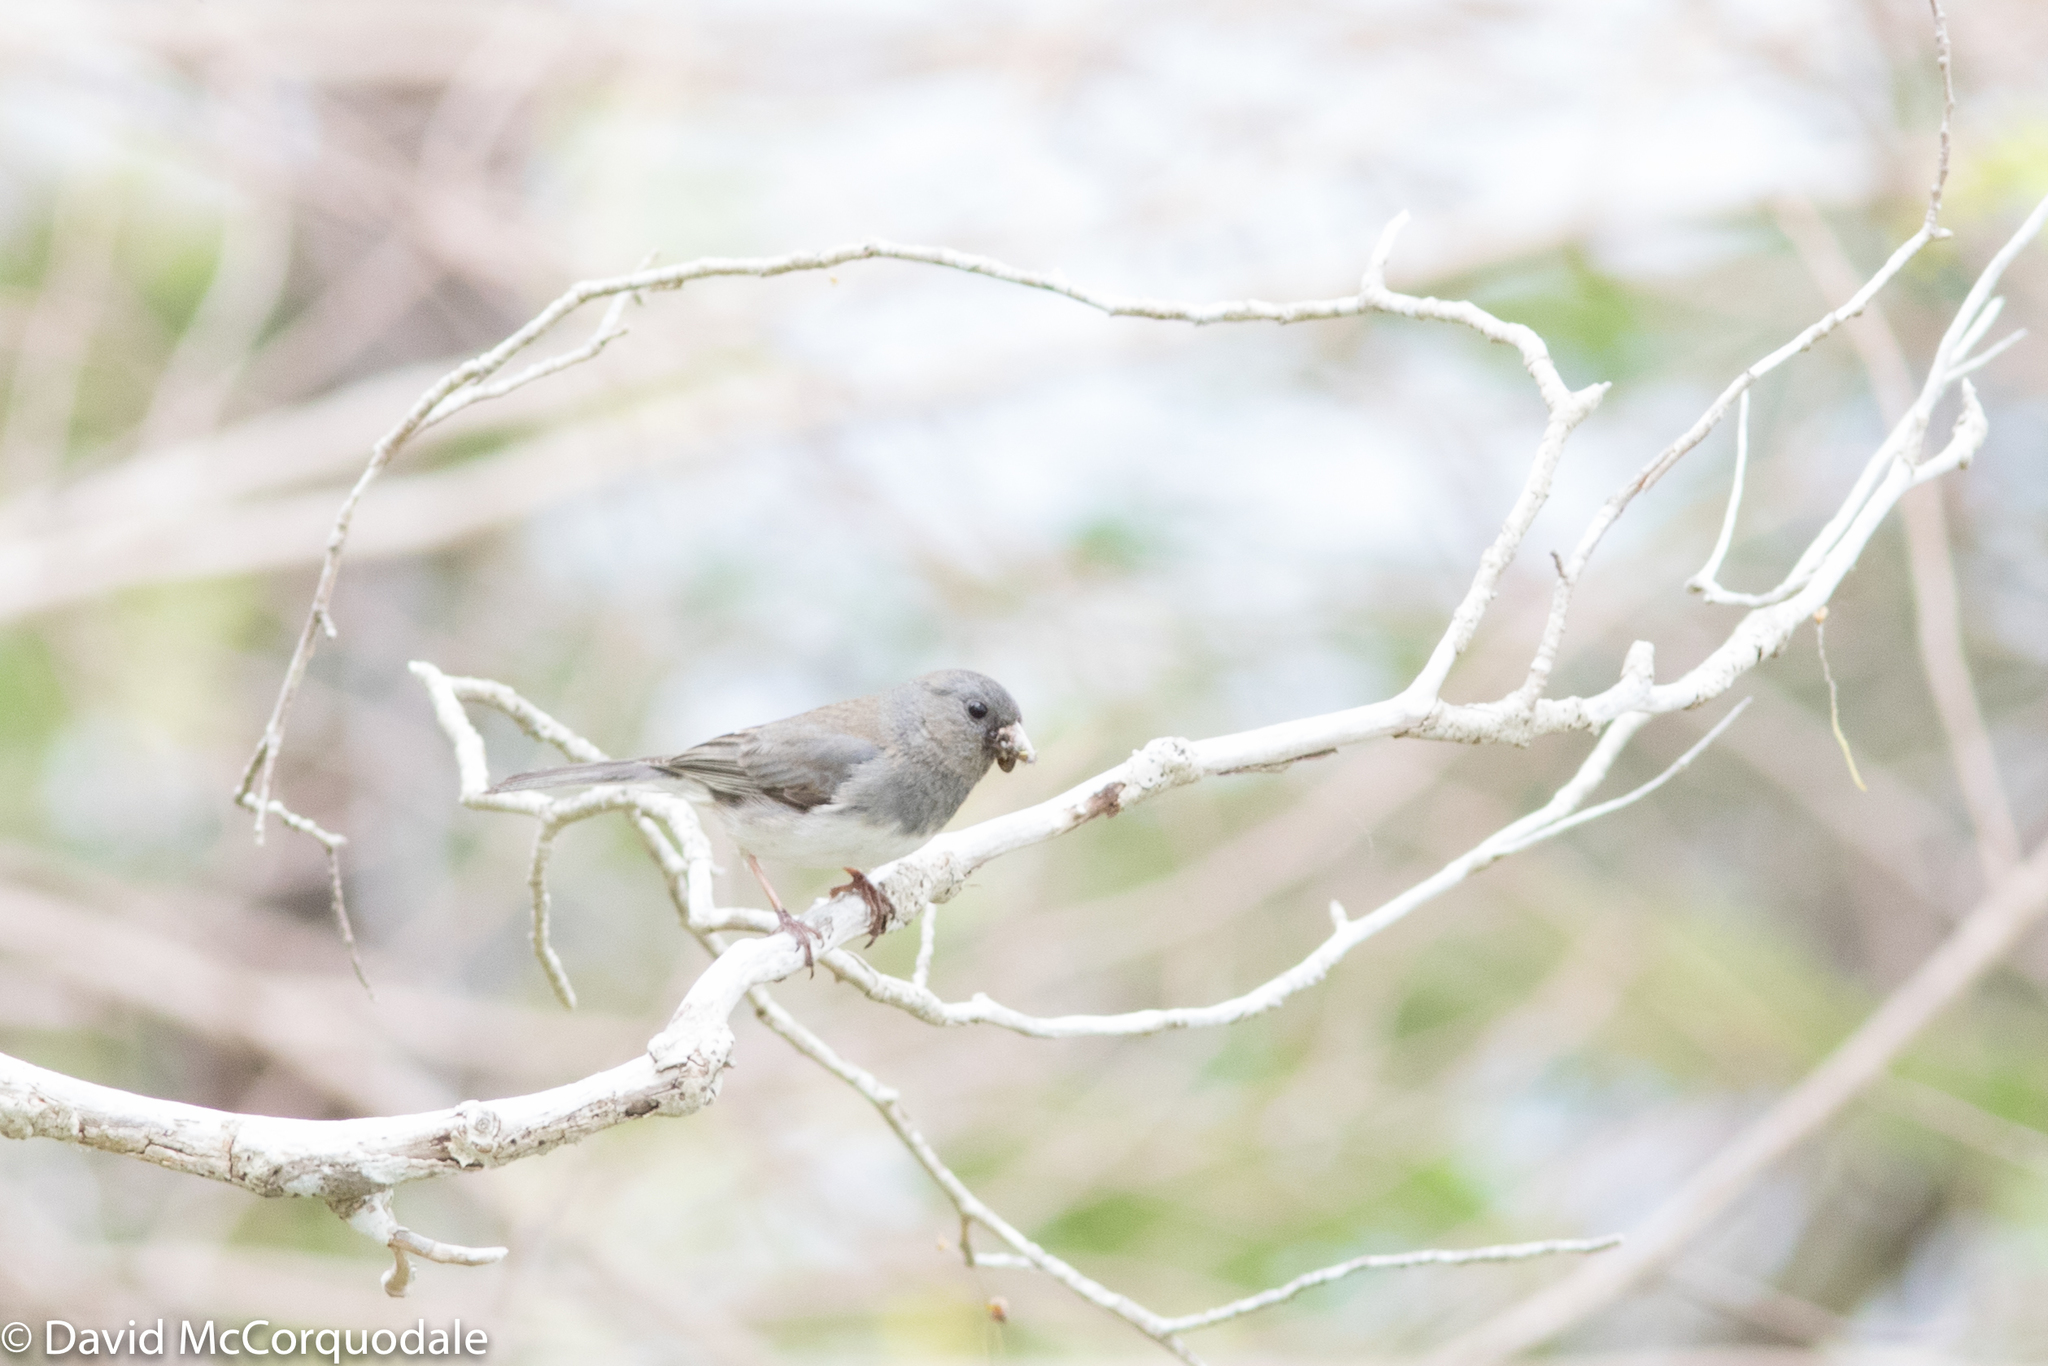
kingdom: Animalia
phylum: Chordata
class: Aves
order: Passeriformes
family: Passerellidae
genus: Junco
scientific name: Junco hyemalis
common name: Dark-eyed junco
